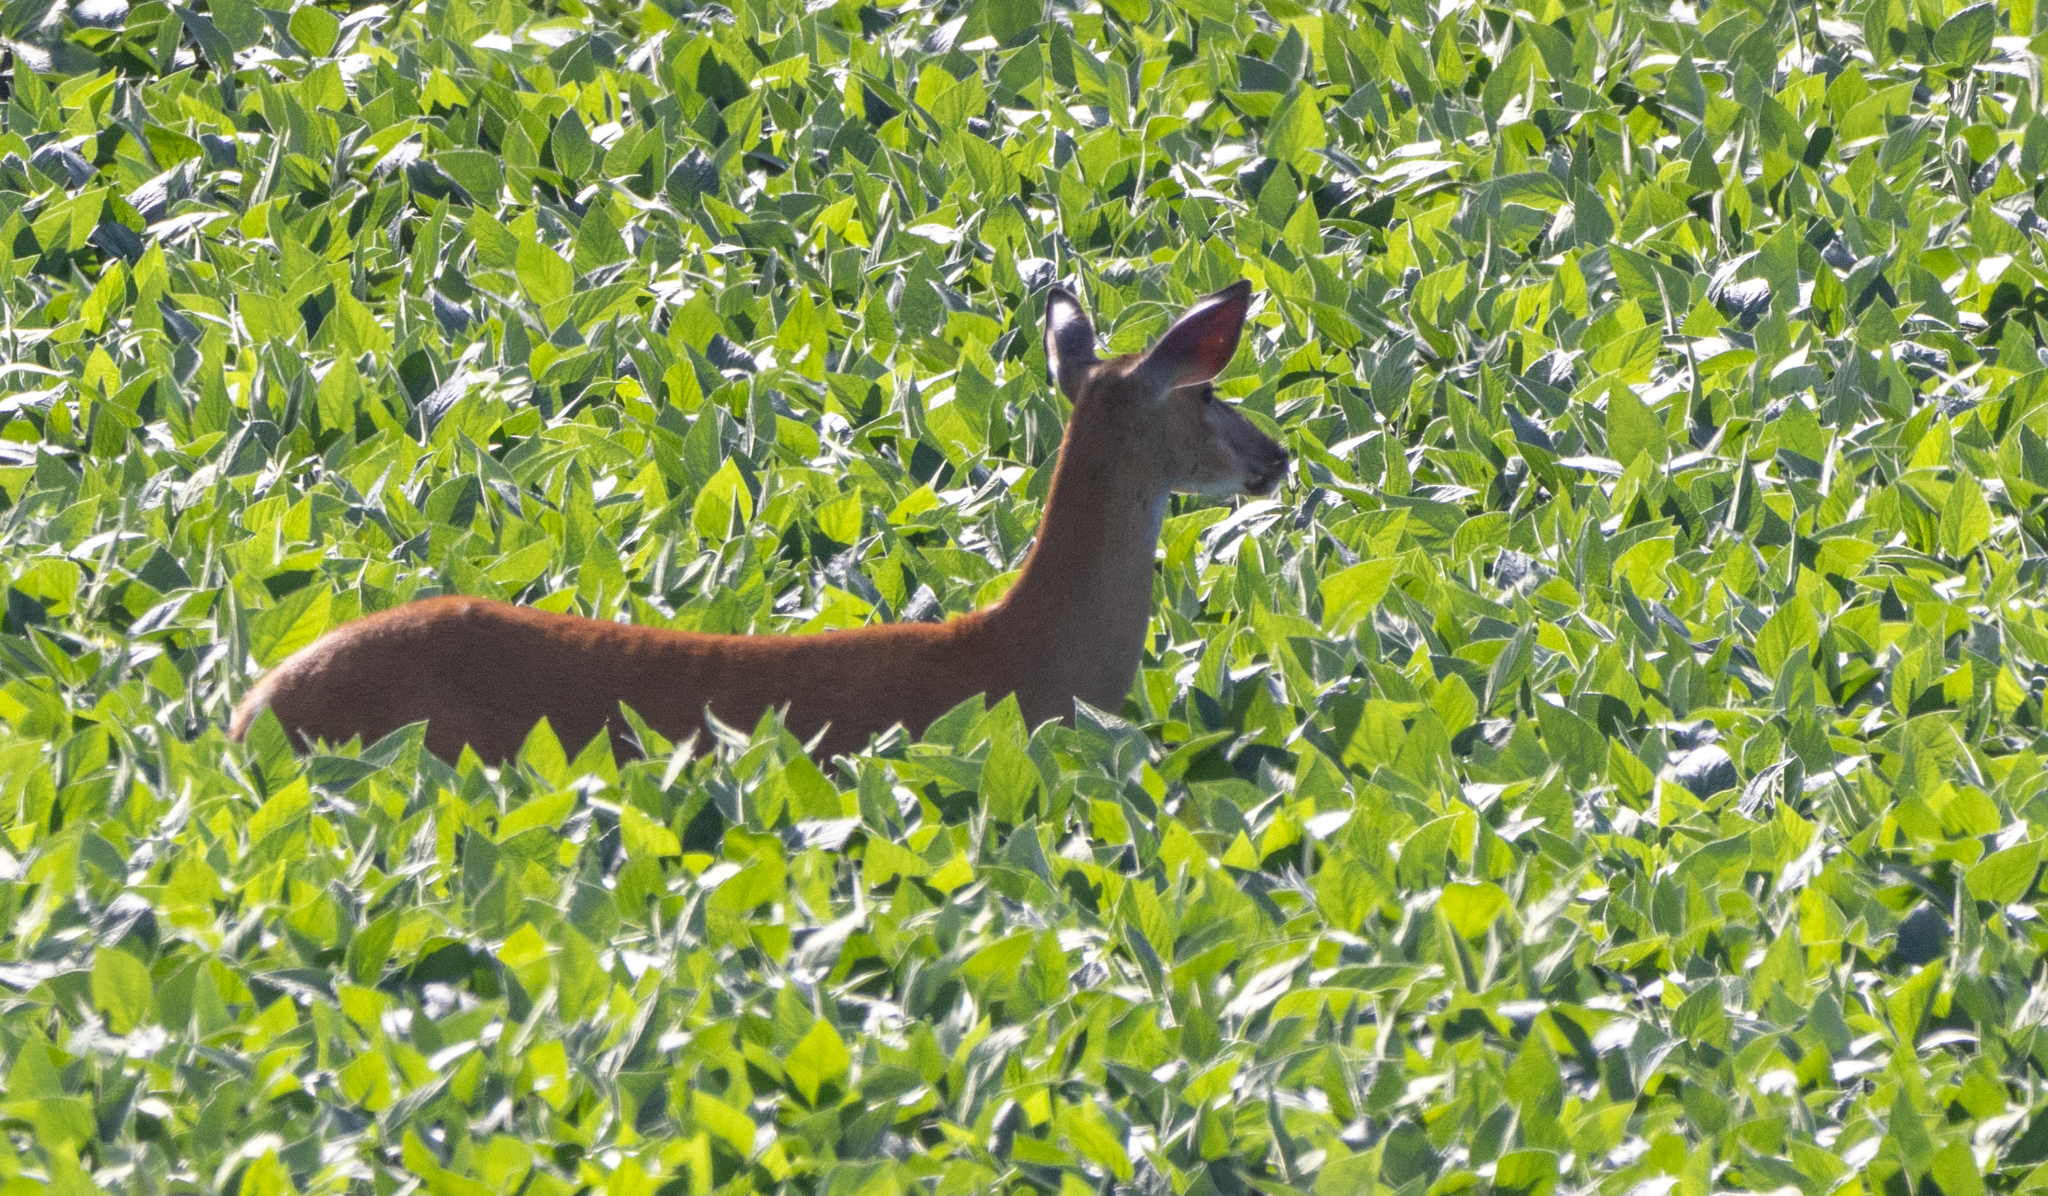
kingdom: Animalia
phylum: Chordata
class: Mammalia
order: Artiodactyla
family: Cervidae
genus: Odocoileus
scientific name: Odocoileus virginianus
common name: White-tailed deer
